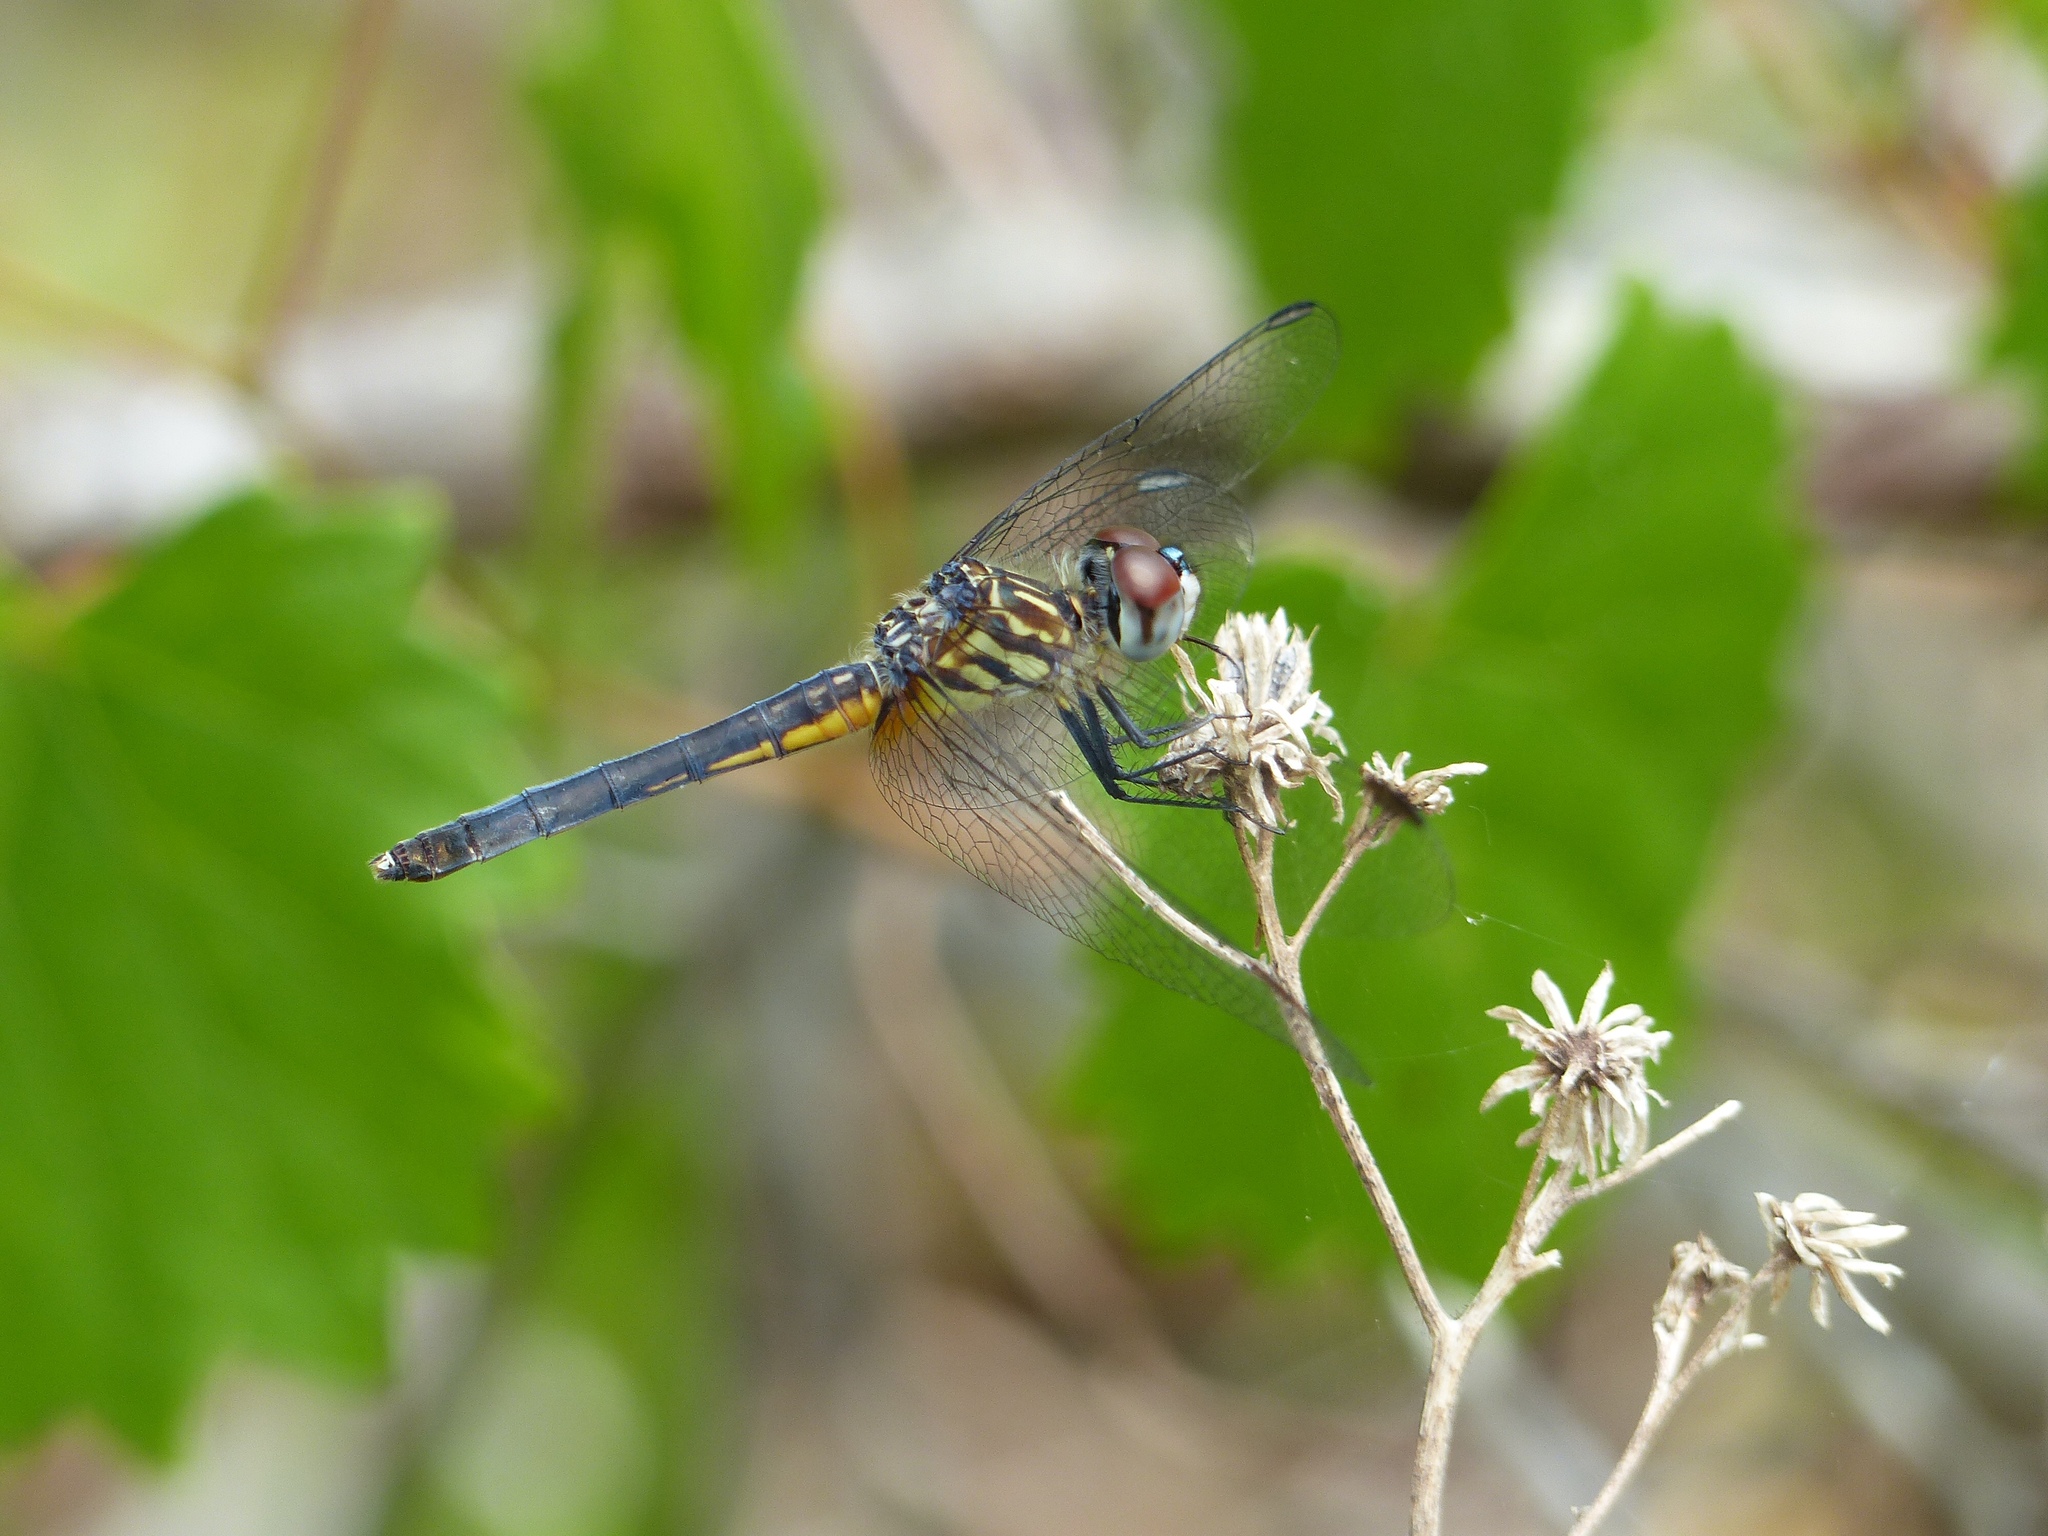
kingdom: Animalia
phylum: Arthropoda
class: Insecta
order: Odonata
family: Libellulidae
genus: Pachydiplax
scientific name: Pachydiplax longipennis
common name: Blue dasher
